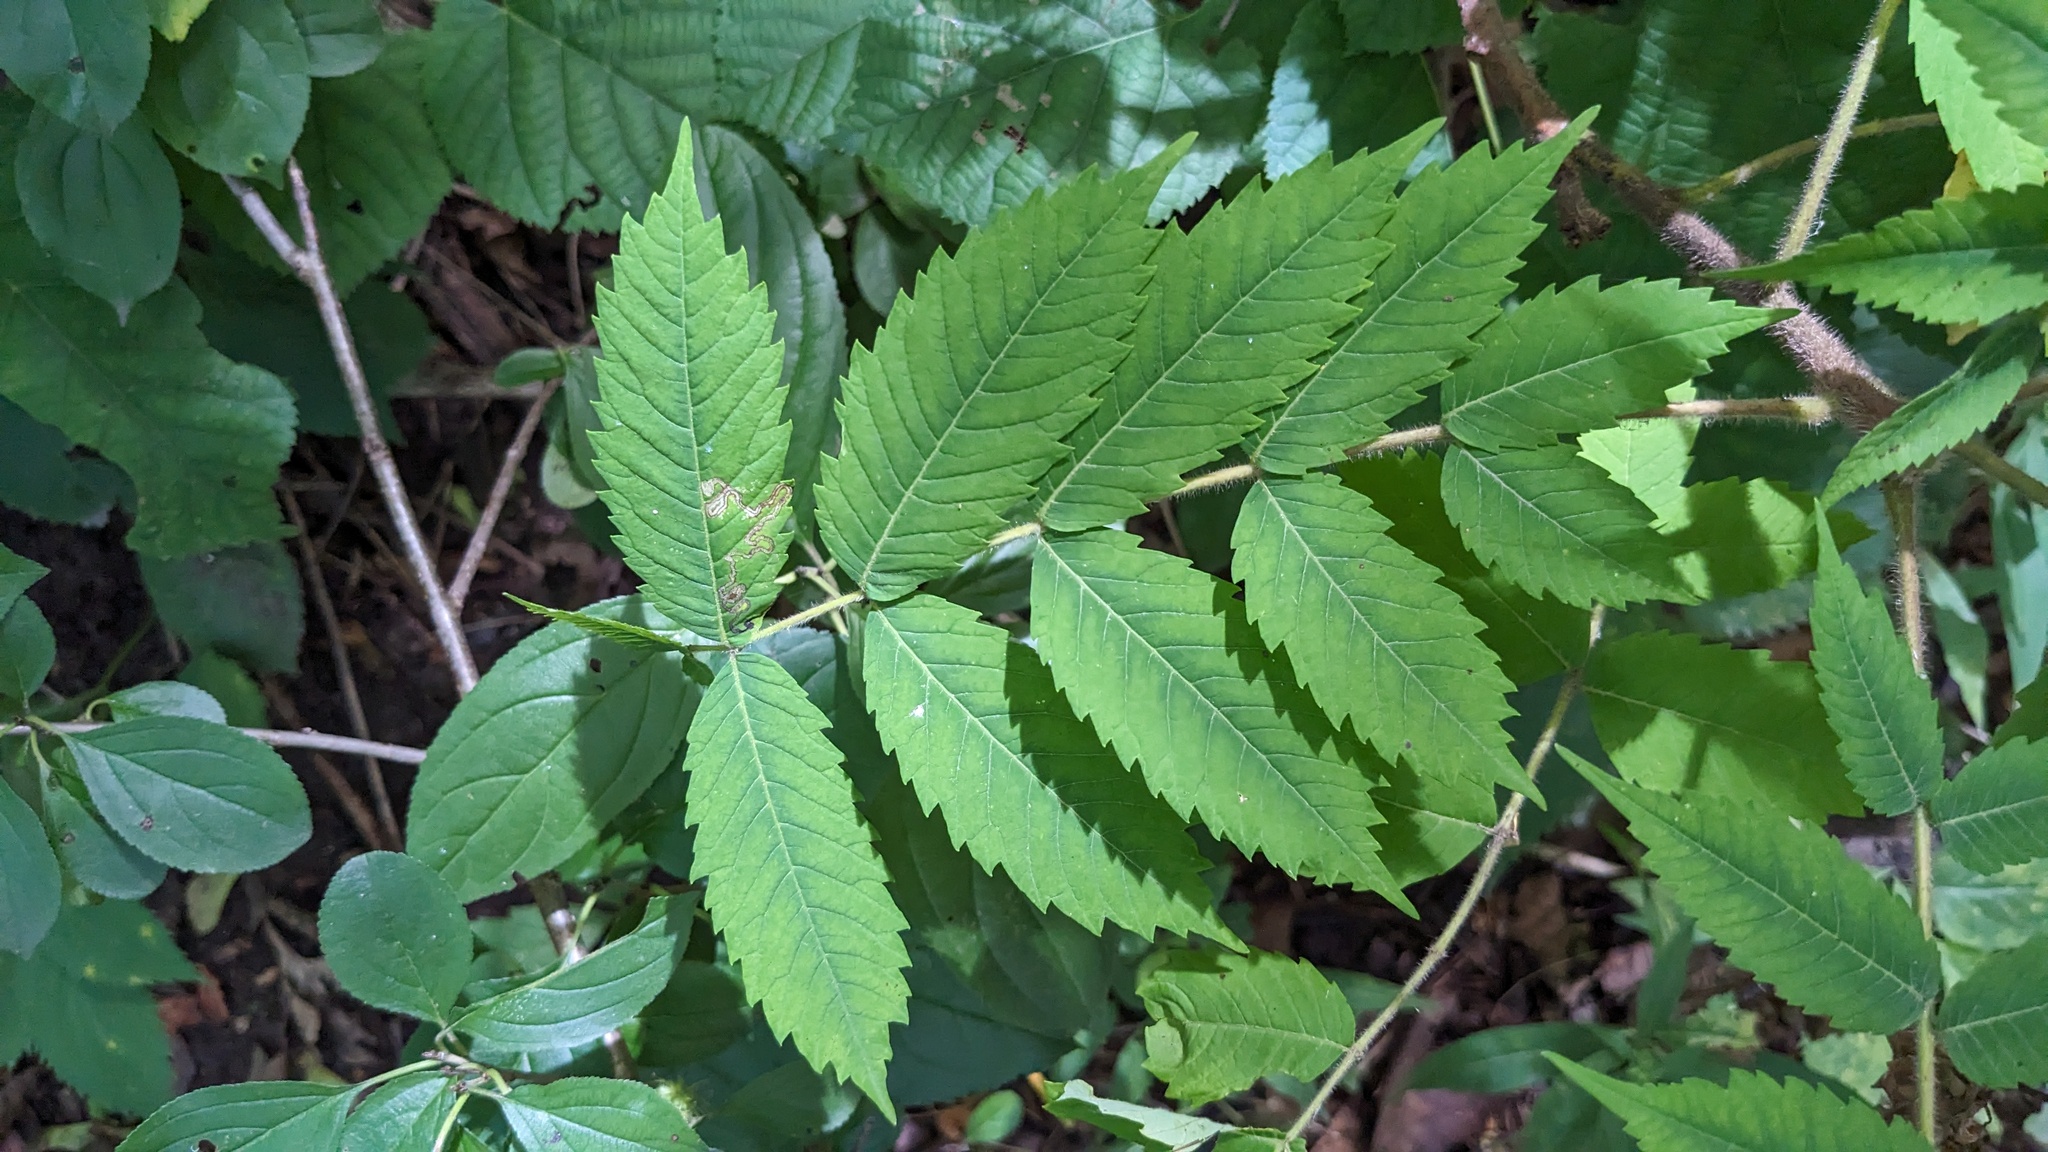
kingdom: Plantae
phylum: Tracheophyta
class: Magnoliopsida
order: Sapindales
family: Anacardiaceae
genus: Rhus
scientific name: Rhus typhina
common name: Staghorn sumac
